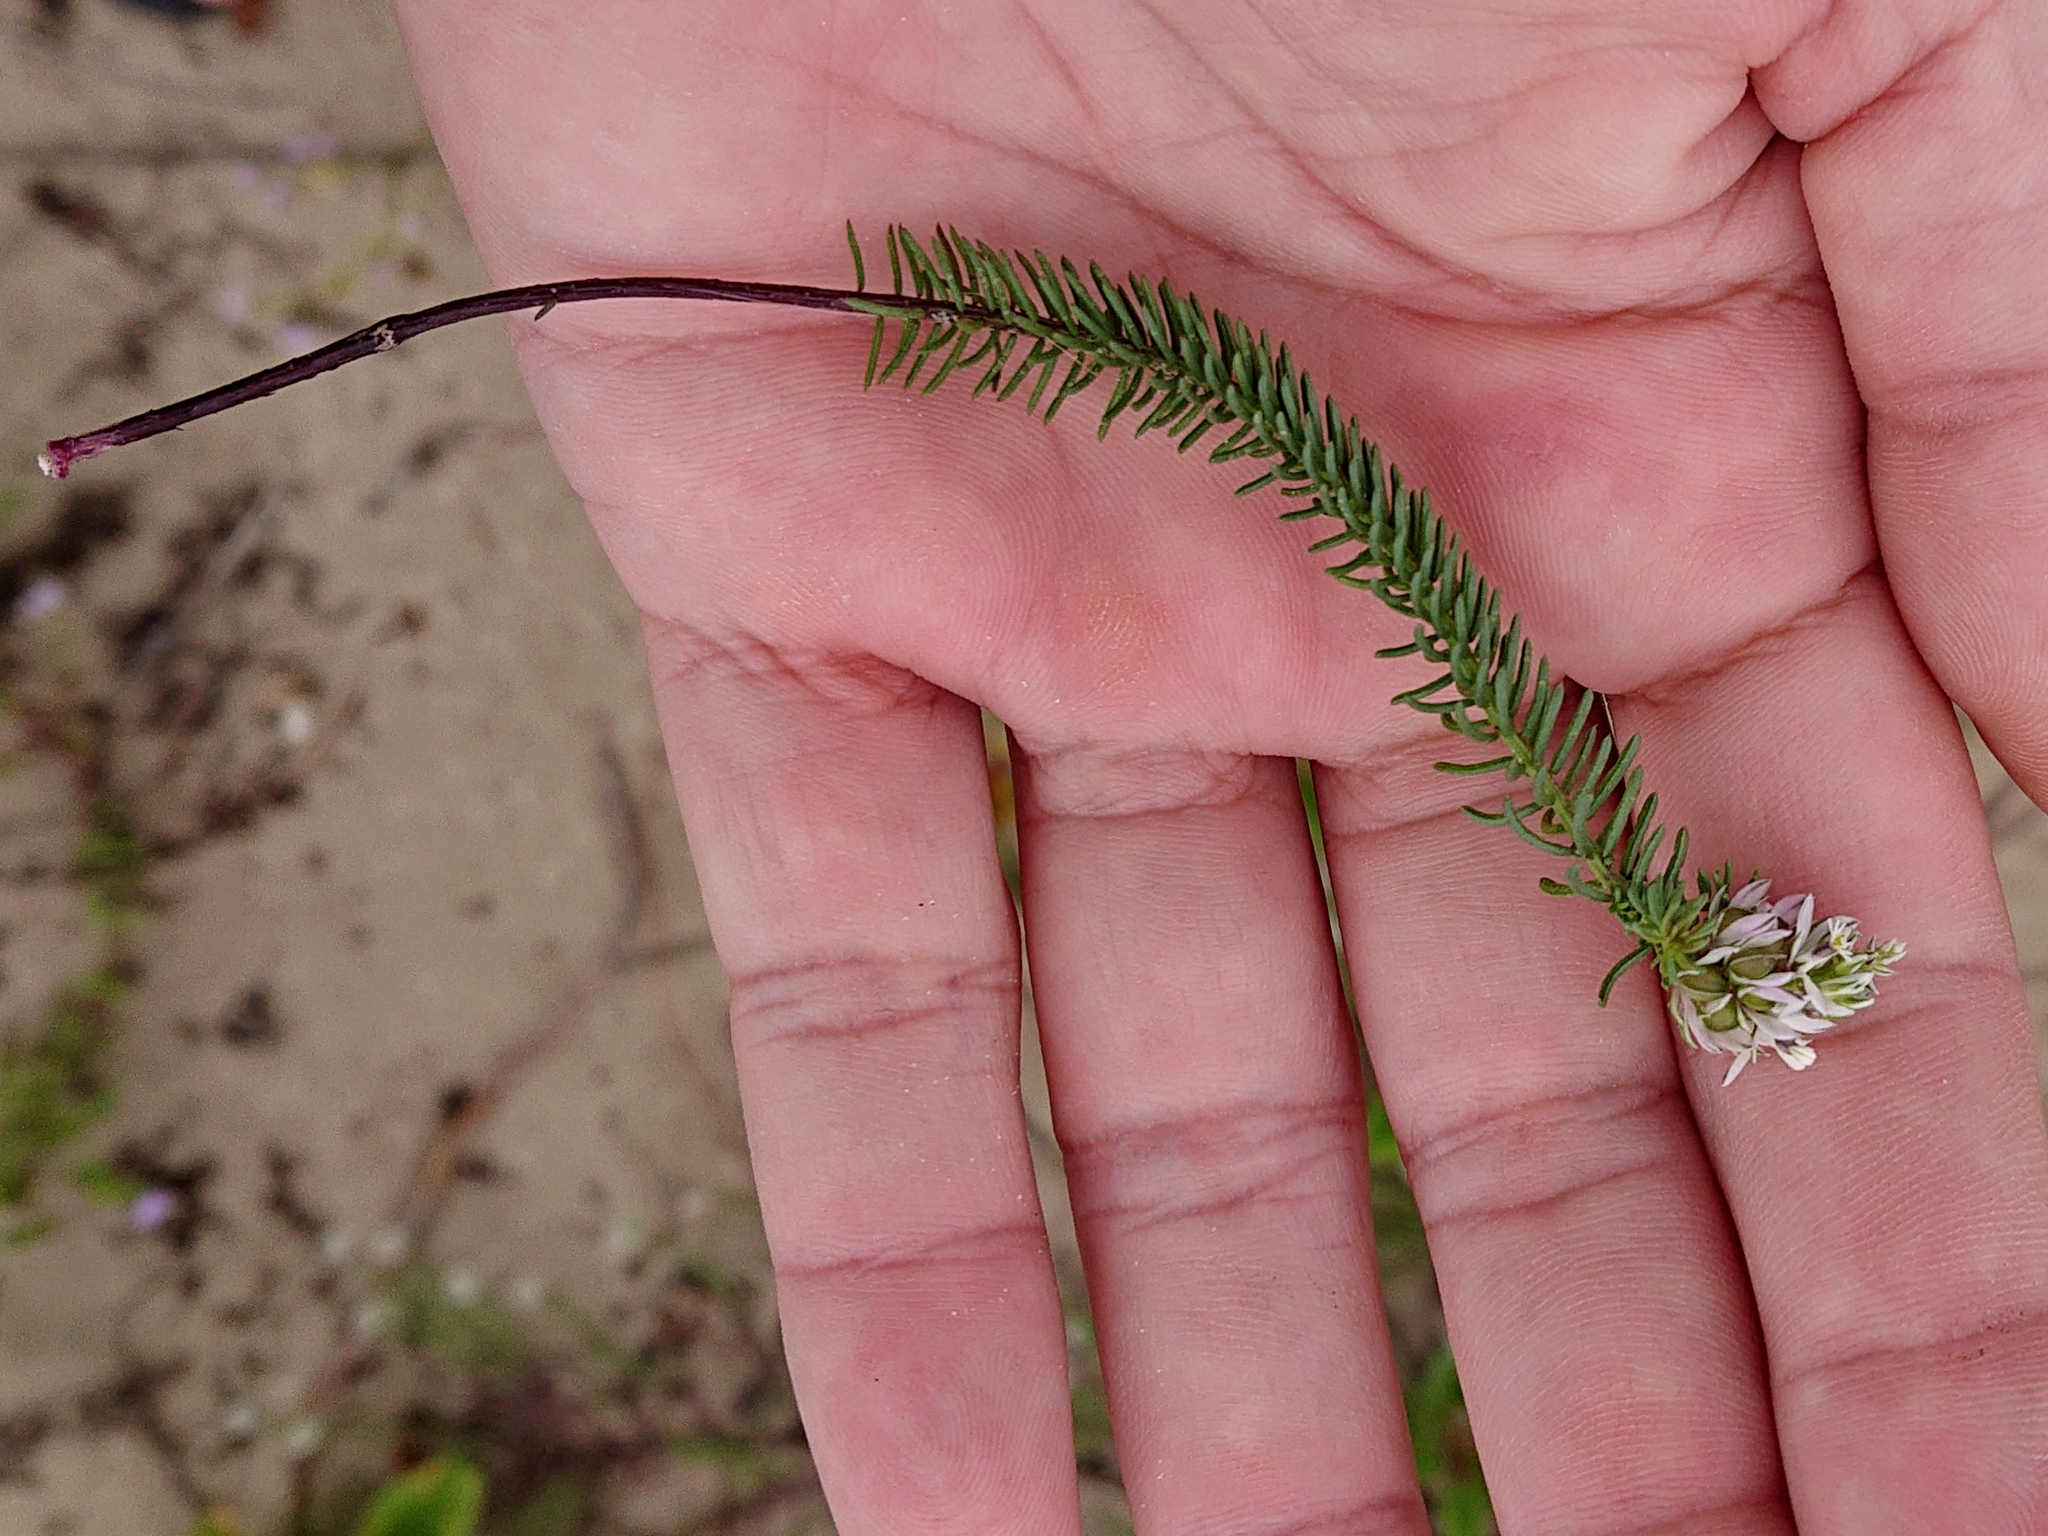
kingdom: Plantae
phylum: Tracheophyta
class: Magnoliopsida
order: Fabales
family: Polygalaceae
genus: Polygala
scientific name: Polygala cyparissias
